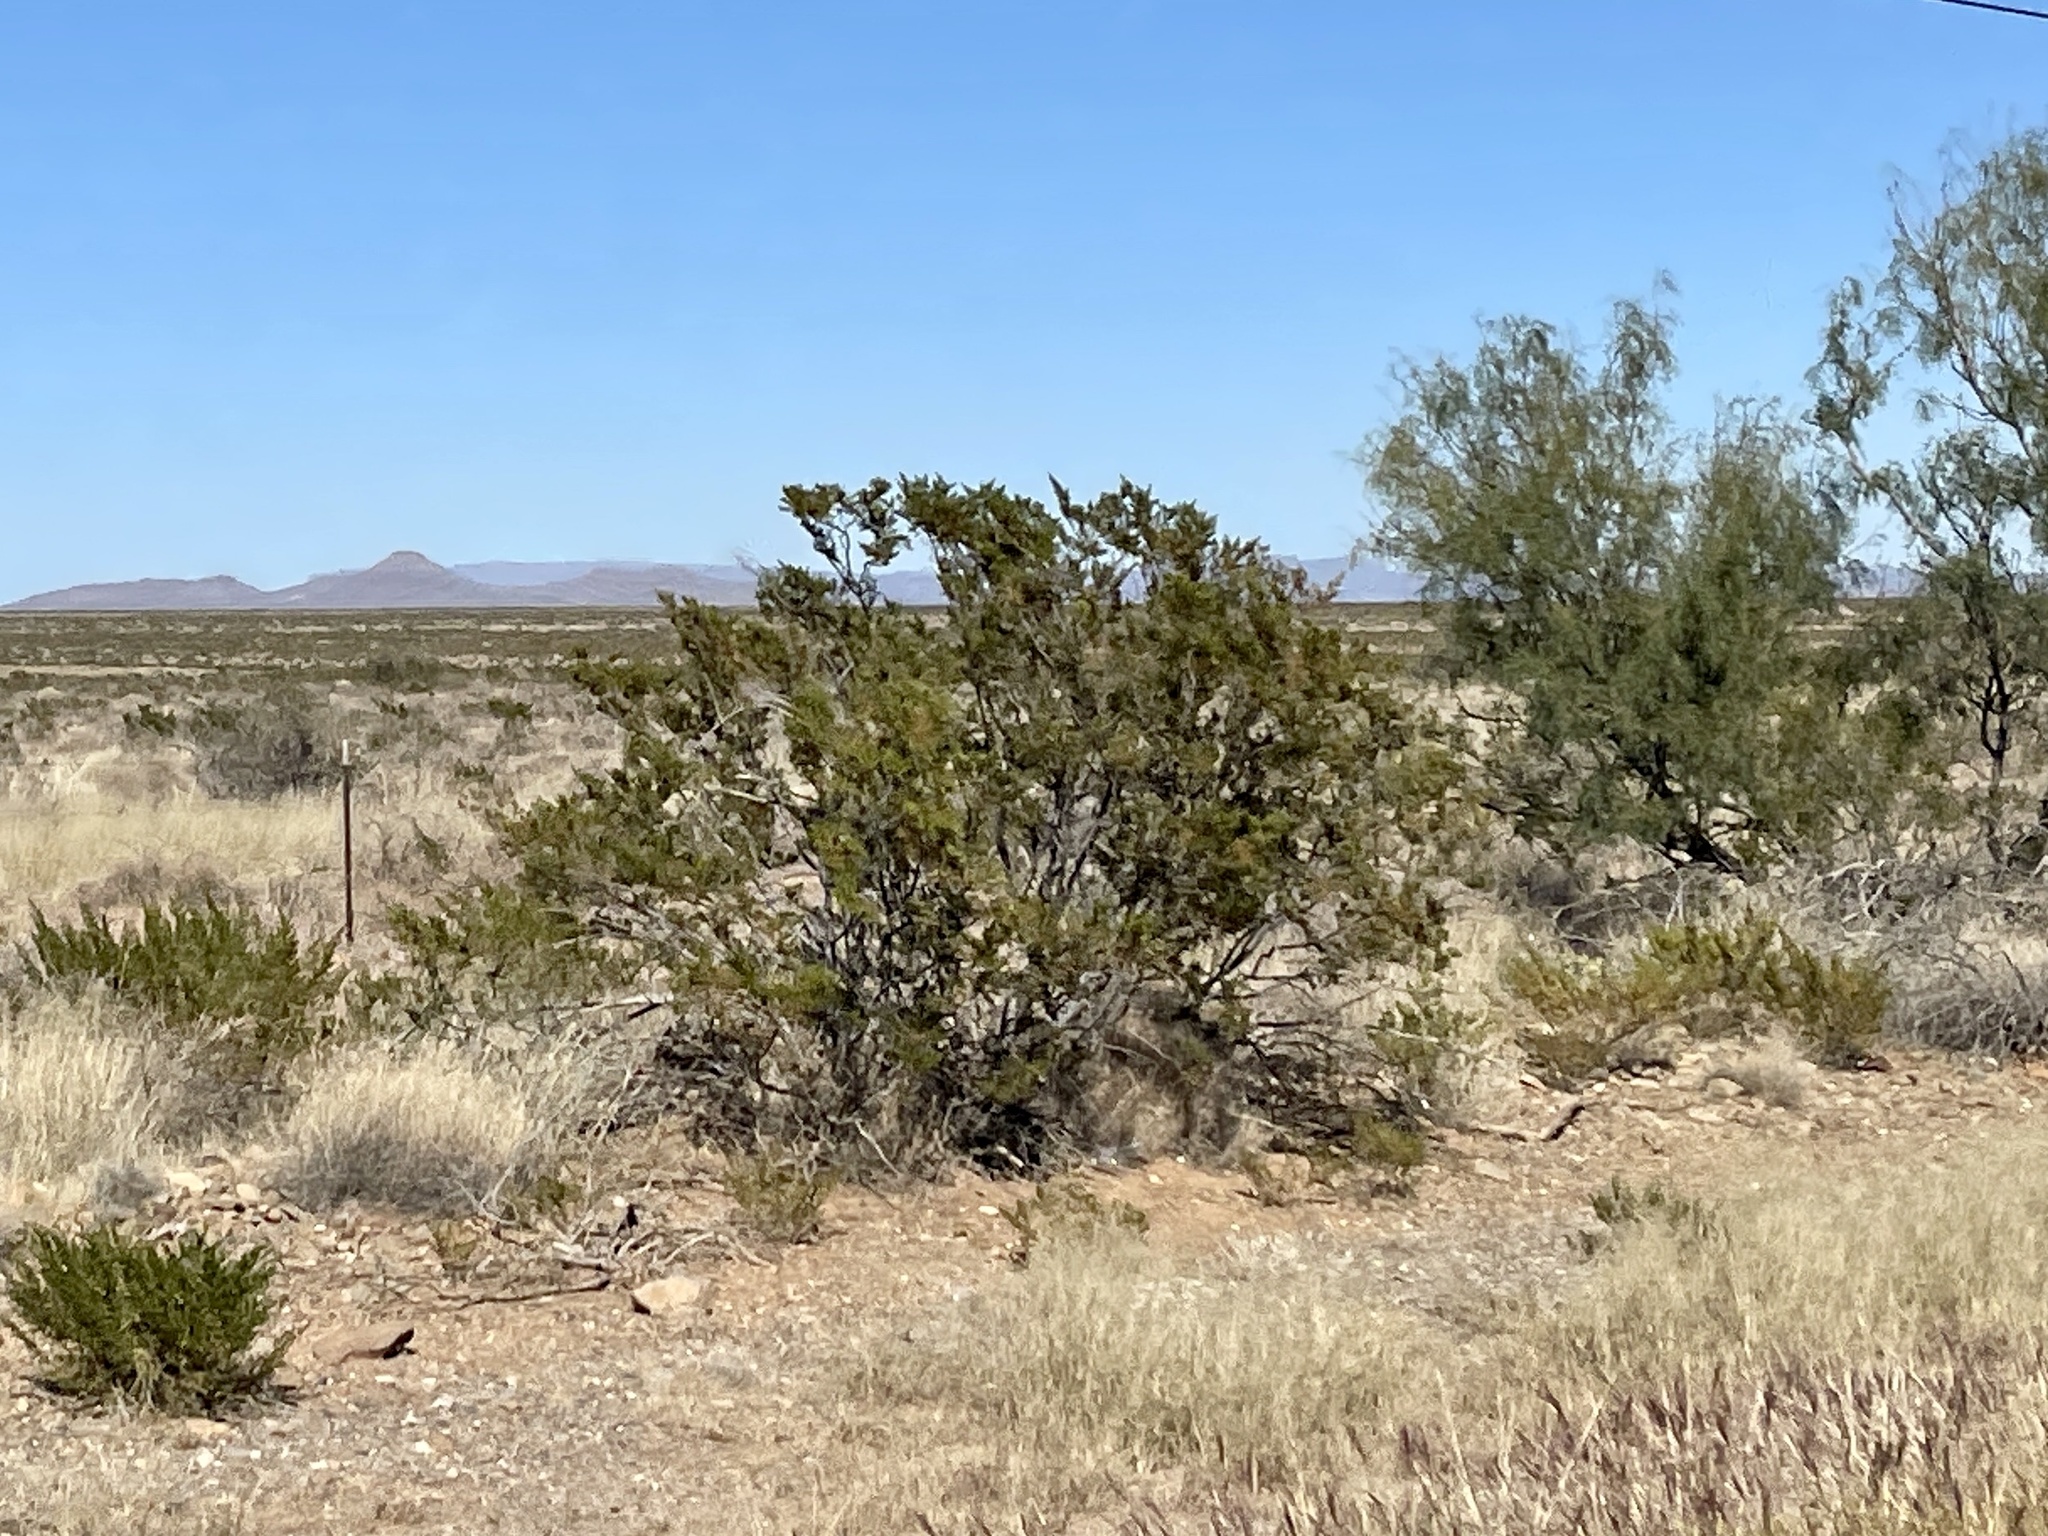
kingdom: Plantae
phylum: Tracheophyta
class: Magnoliopsida
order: Zygophyllales
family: Zygophyllaceae
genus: Larrea
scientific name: Larrea tridentata
